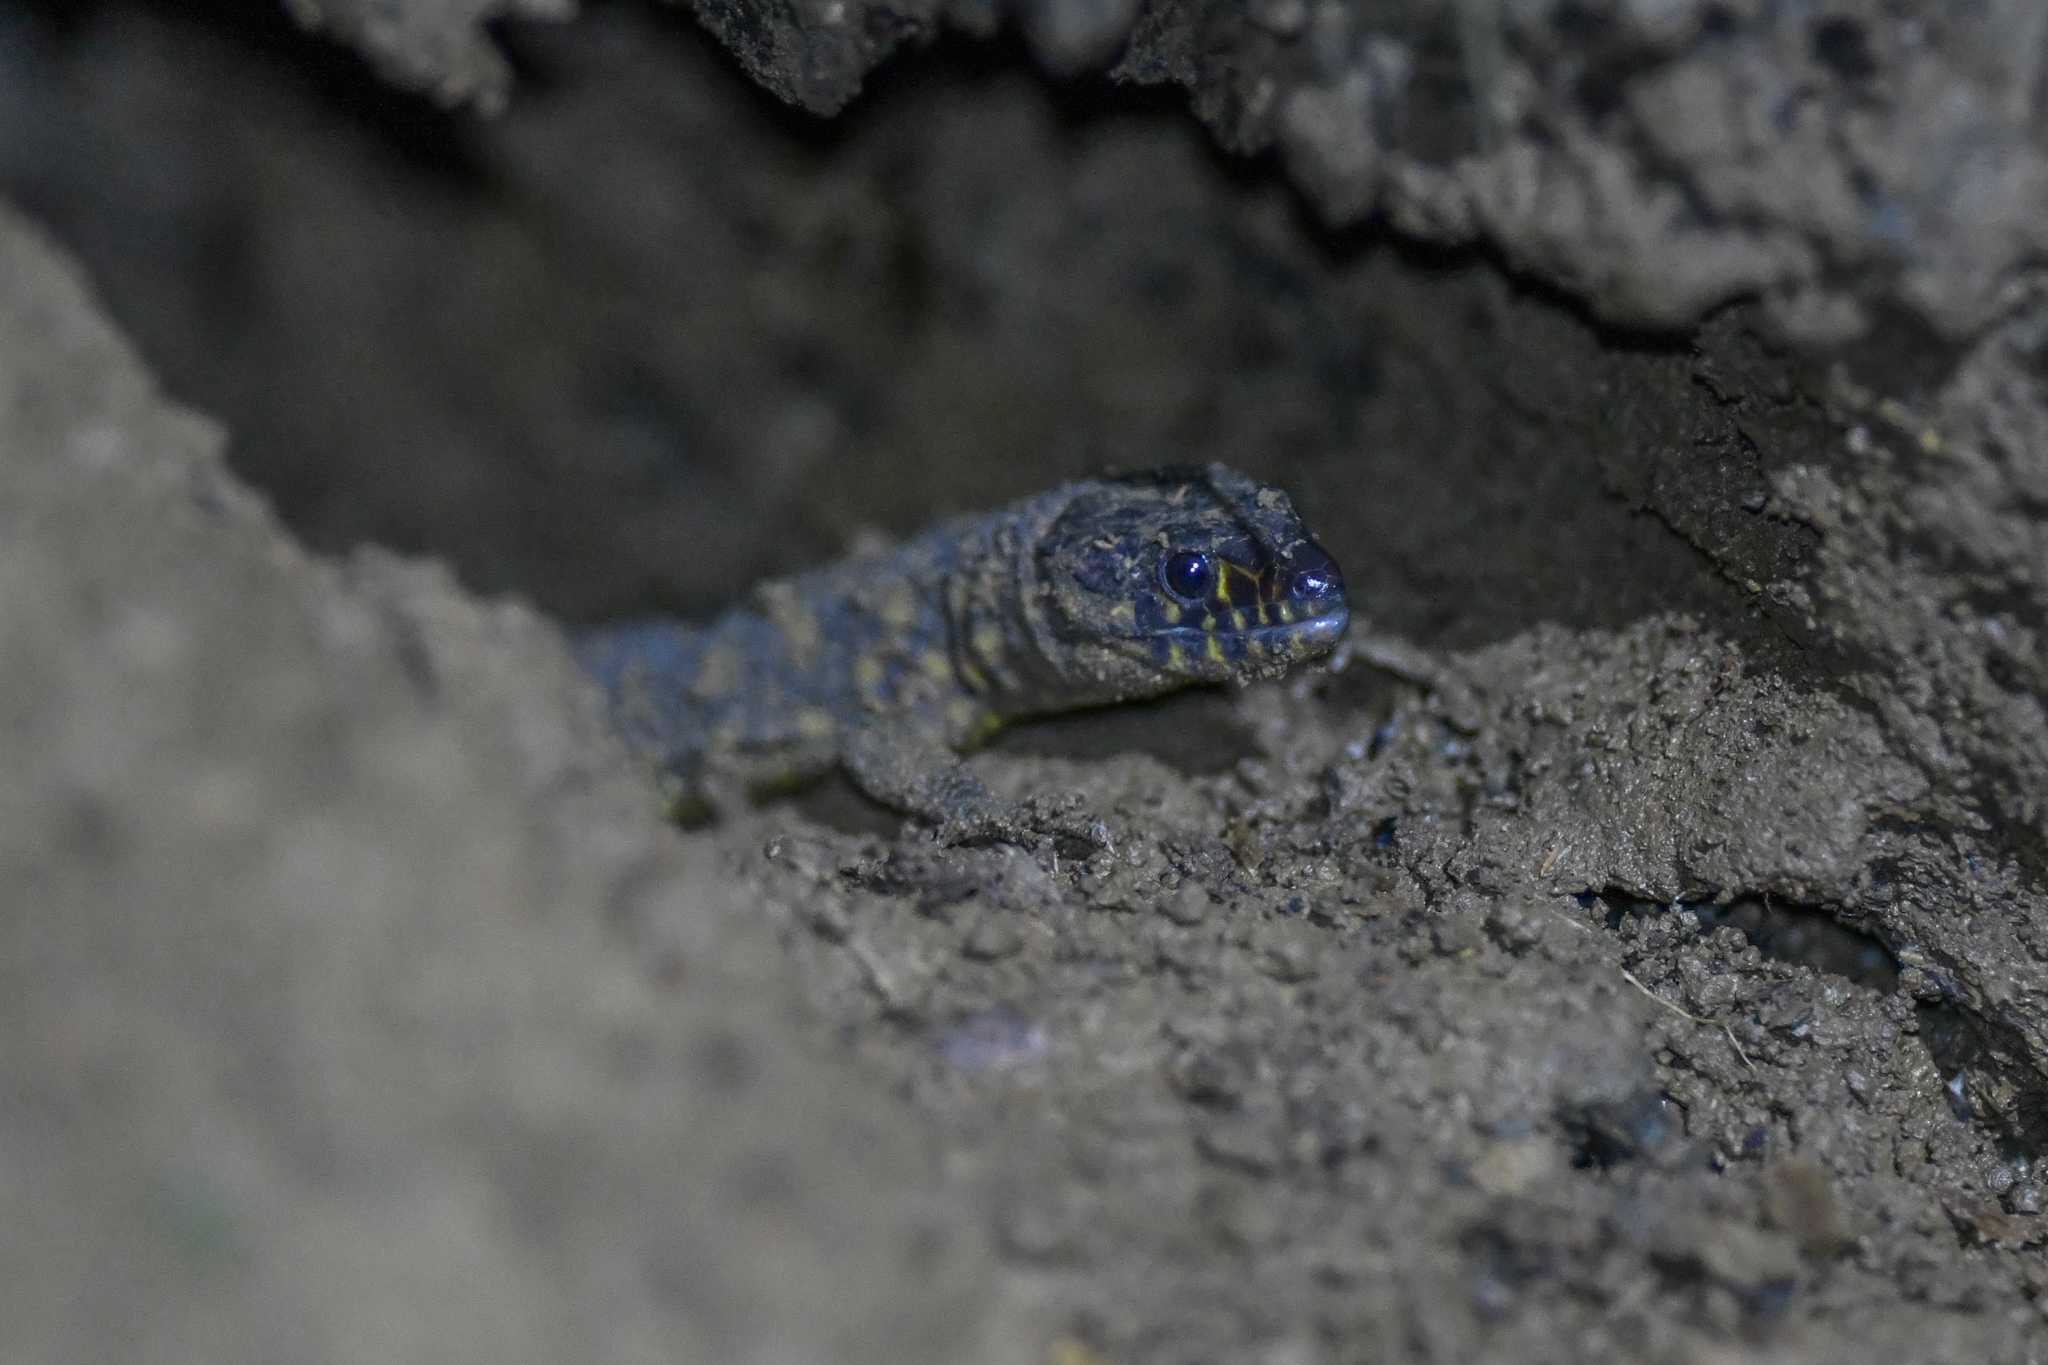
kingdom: Animalia
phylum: Chordata
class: Squamata
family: Xantusiidae
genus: Lepidophyma
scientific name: Lepidophyma flavimaculatum
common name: Yellow-spotted night lizard
